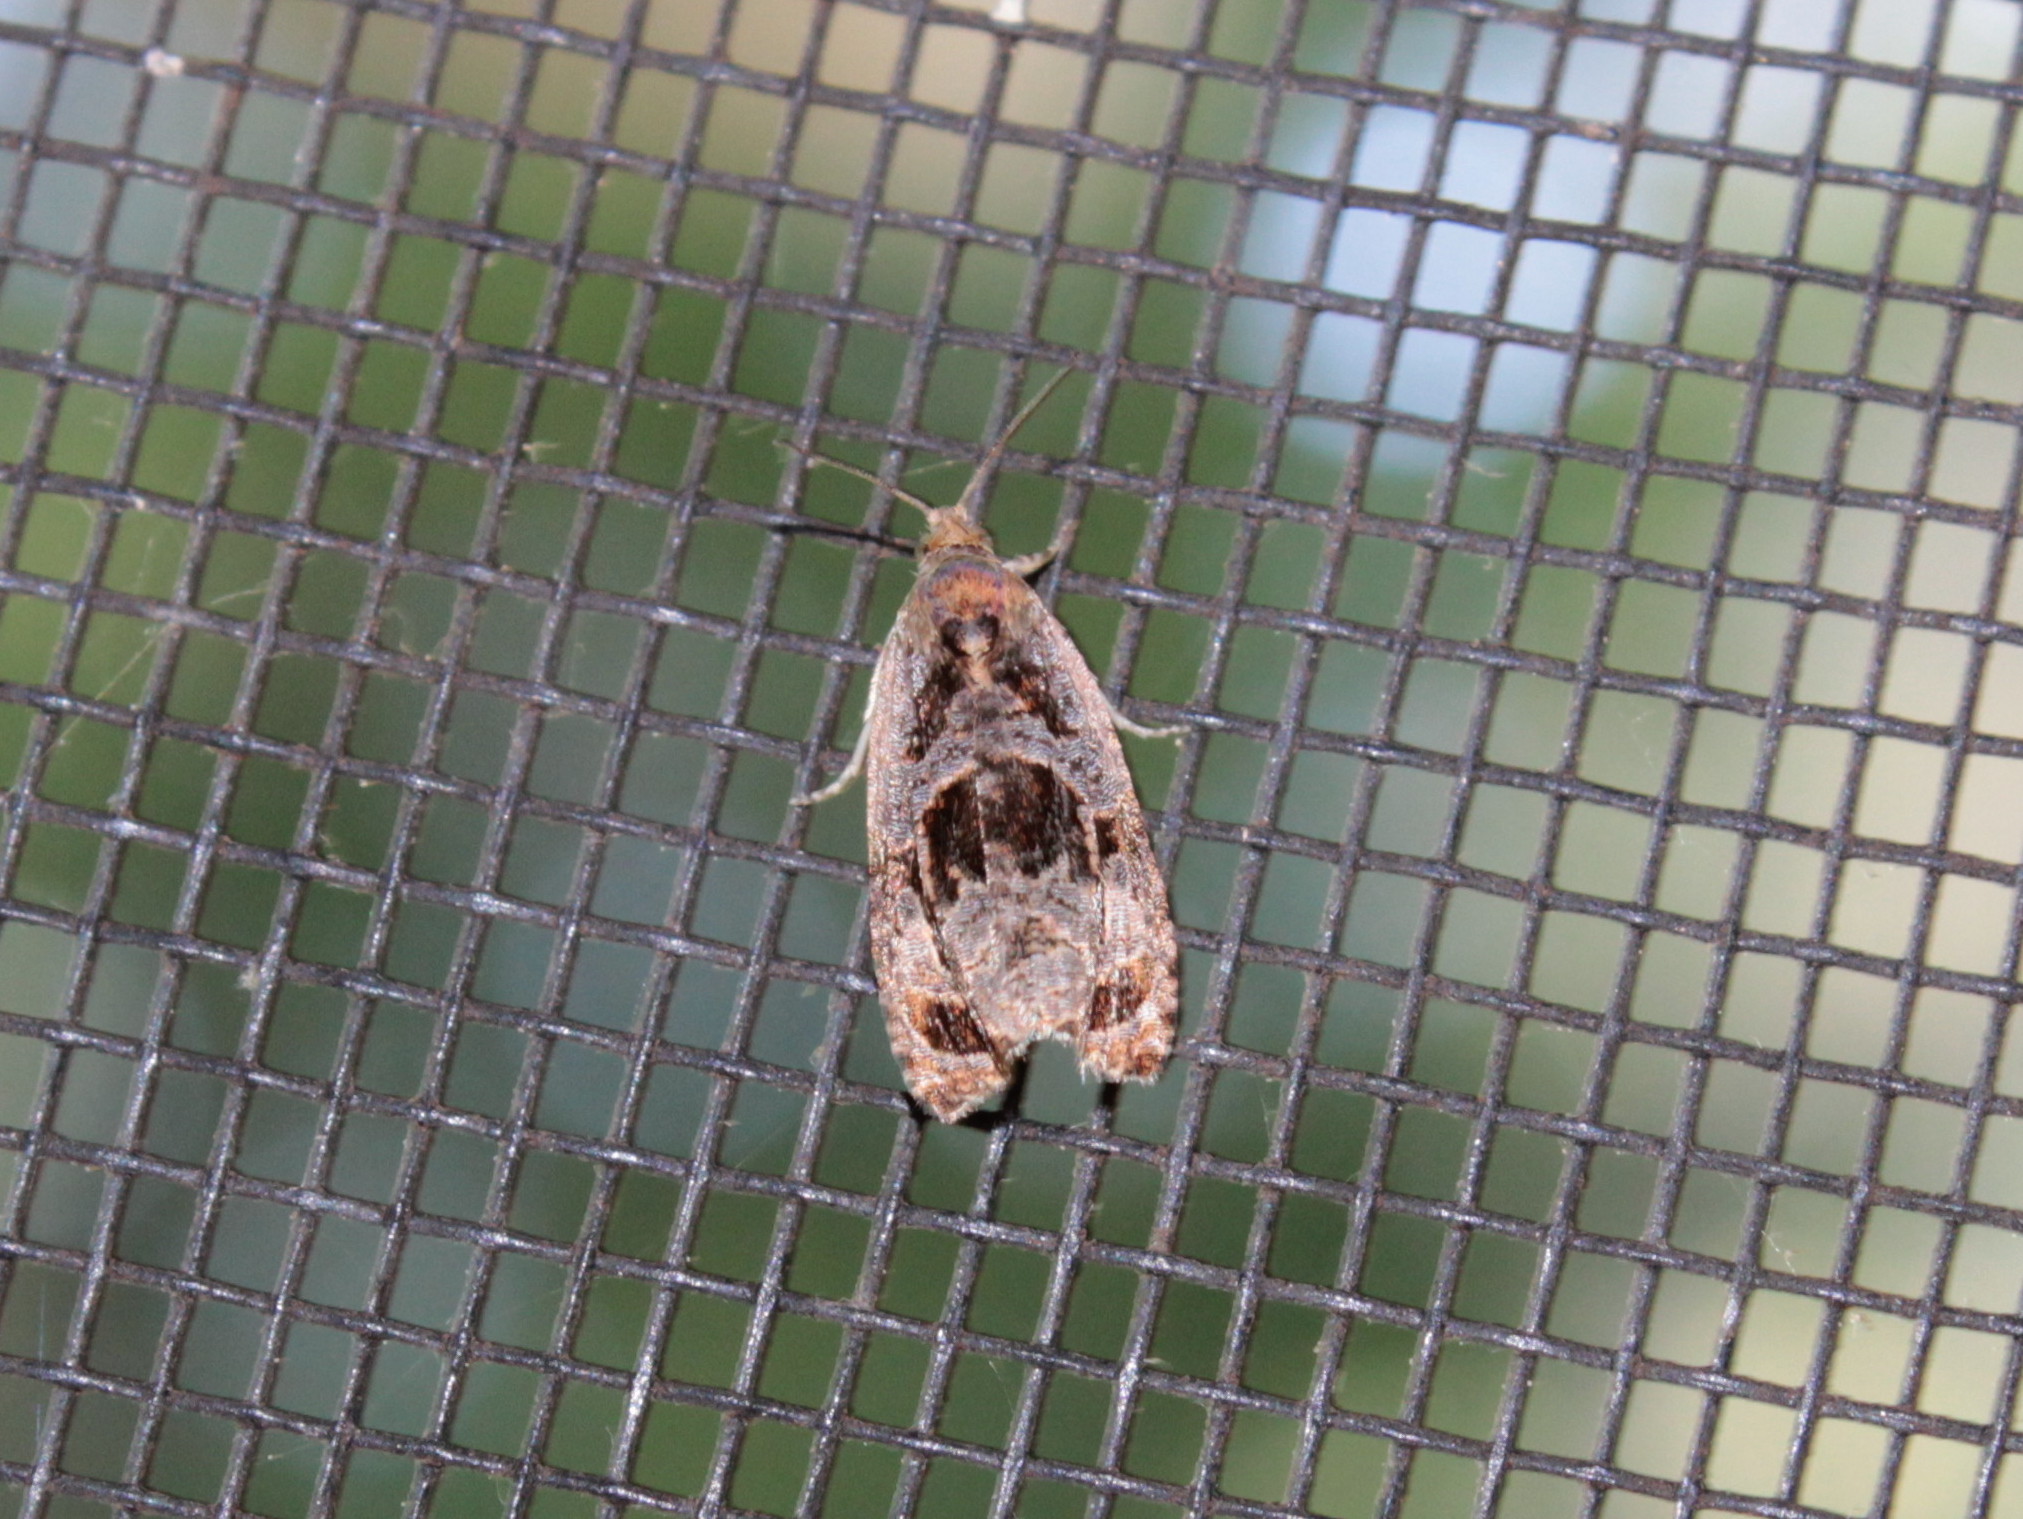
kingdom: Animalia
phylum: Arthropoda
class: Insecta
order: Lepidoptera
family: Tortricidae
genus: Olethreutes
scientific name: Olethreutes melanomesum
